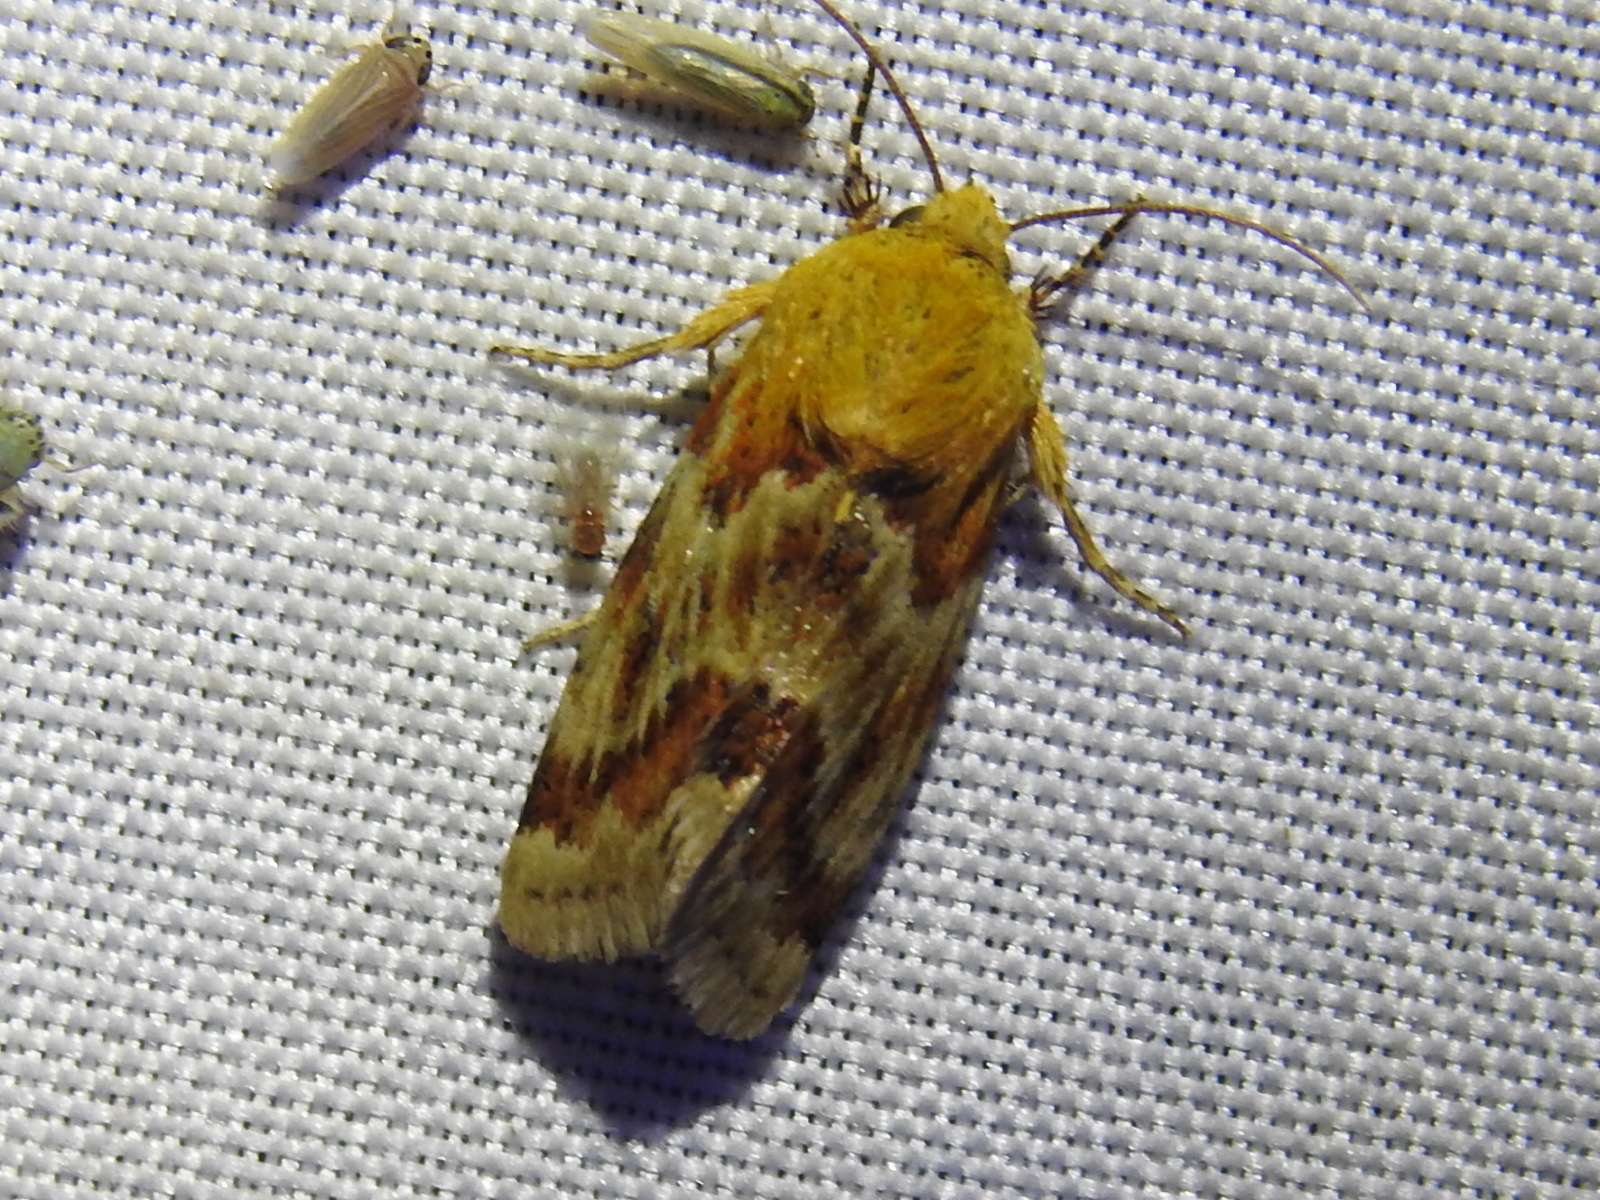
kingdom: Animalia
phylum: Arthropoda
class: Insecta
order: Lepidoptera
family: Noctuidae
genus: Schinia
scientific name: Schinia siren
